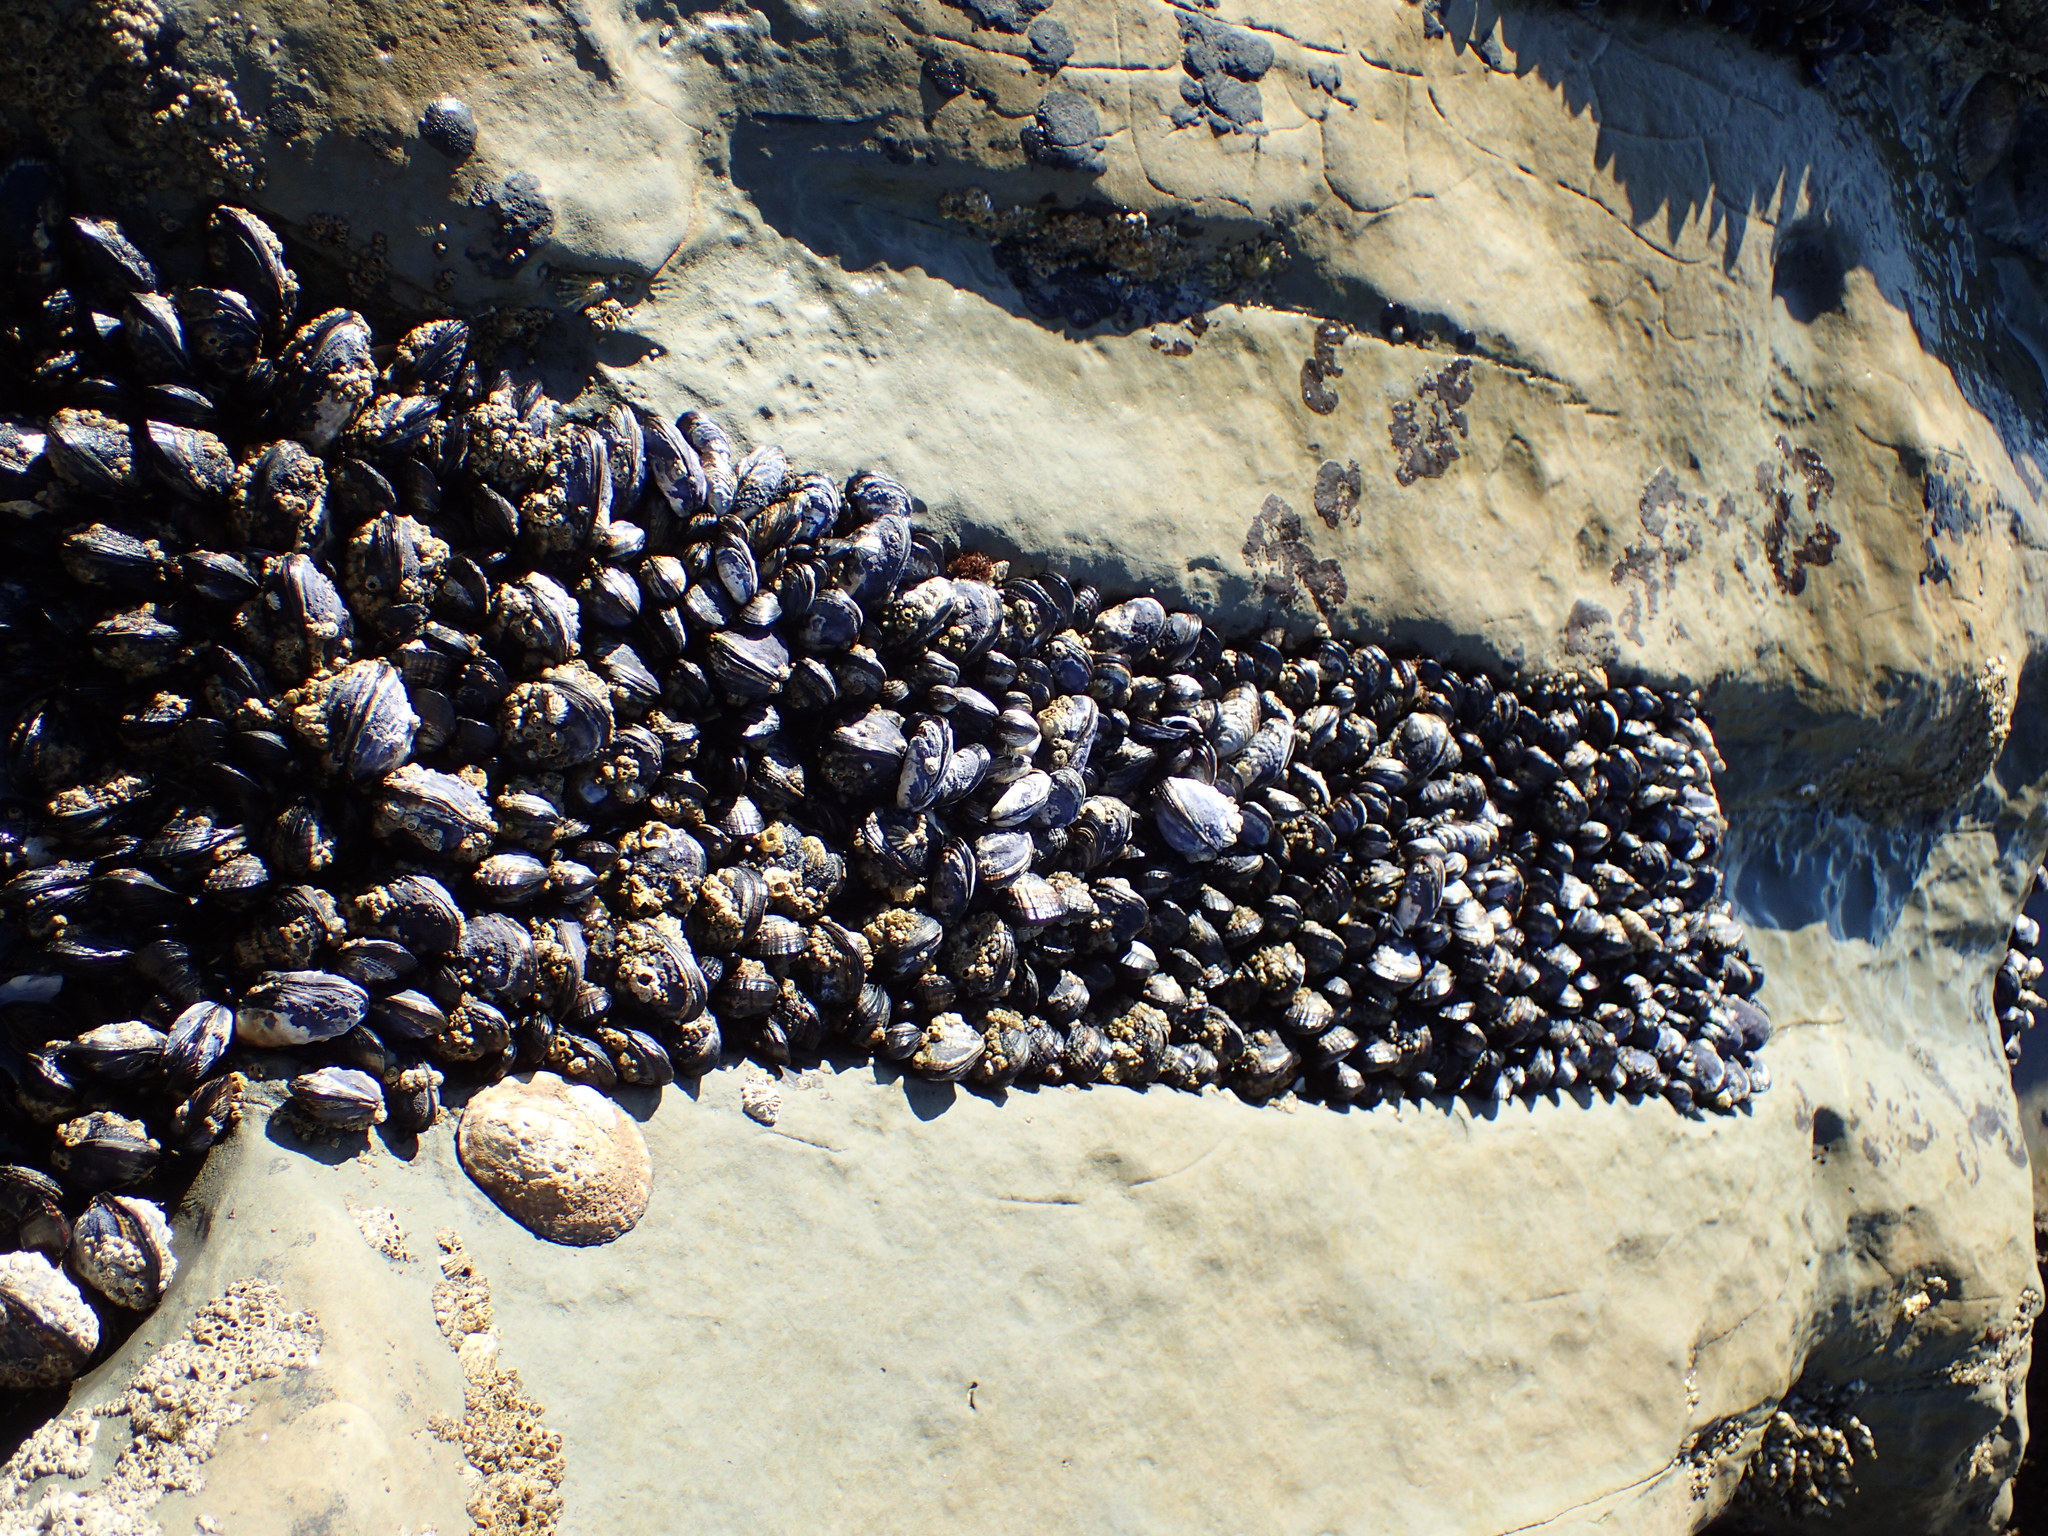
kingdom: Animalia
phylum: Mollusca
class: Bivalvia
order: Mytilida
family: Mytilidae
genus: Mytilus
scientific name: Mytilus californianus
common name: California mussel
